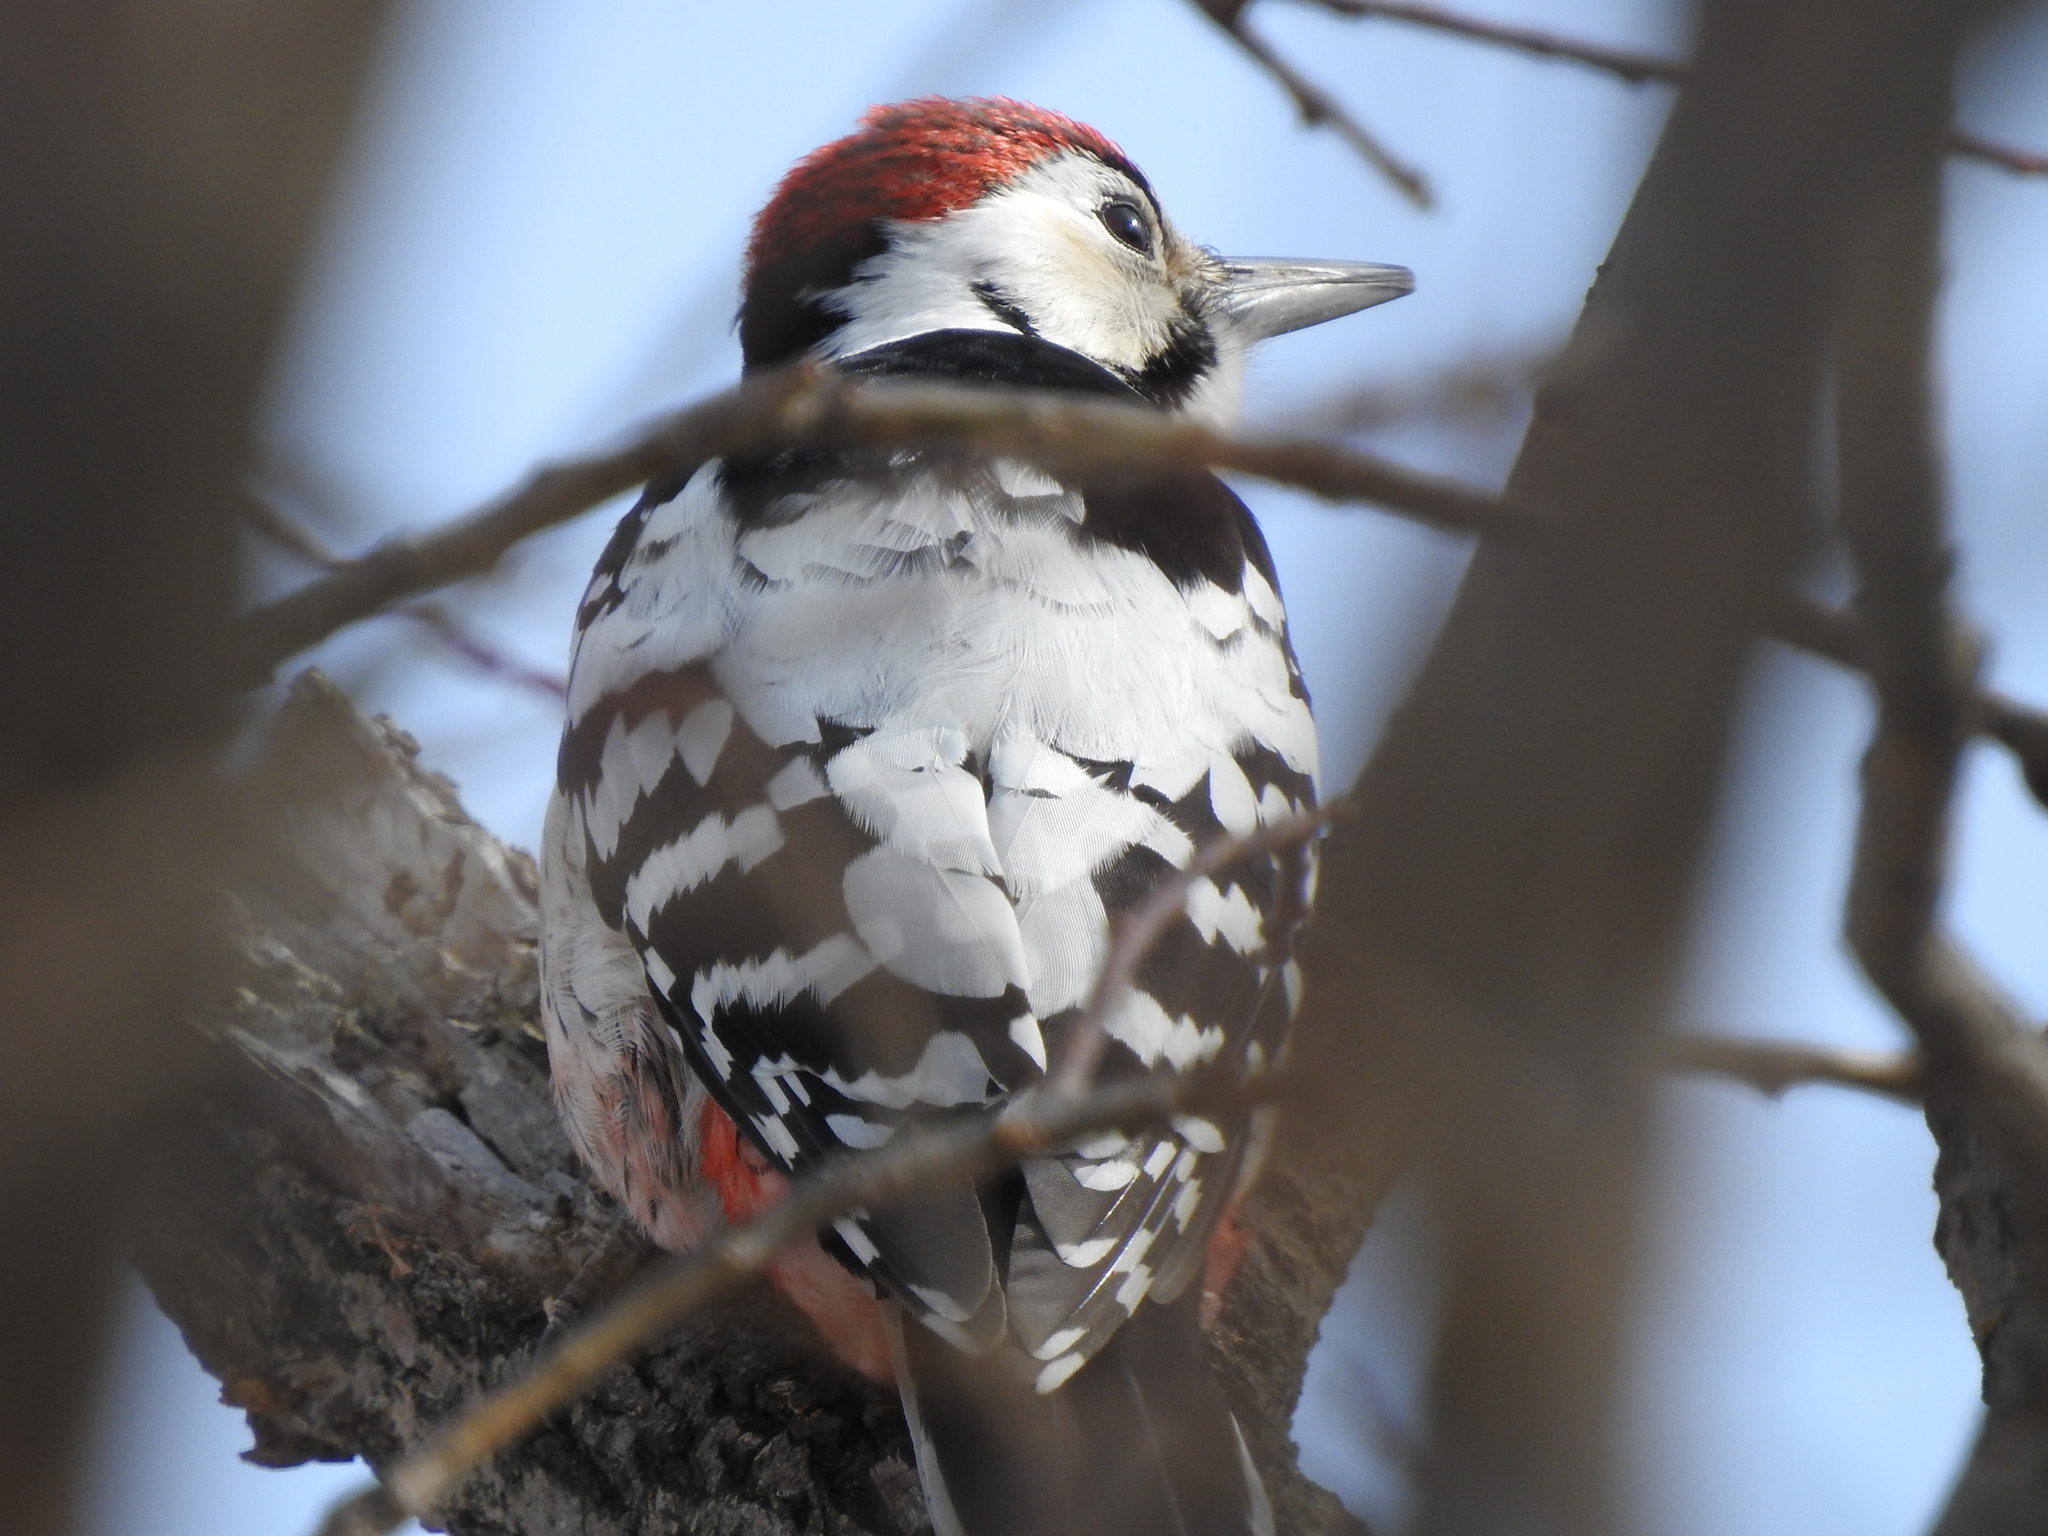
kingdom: Animalia
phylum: Chordata
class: Aves
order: Piciformes
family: Picidae
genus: Dendrocopos
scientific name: Dendrocopos leucotos
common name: White-backed woodpecker
